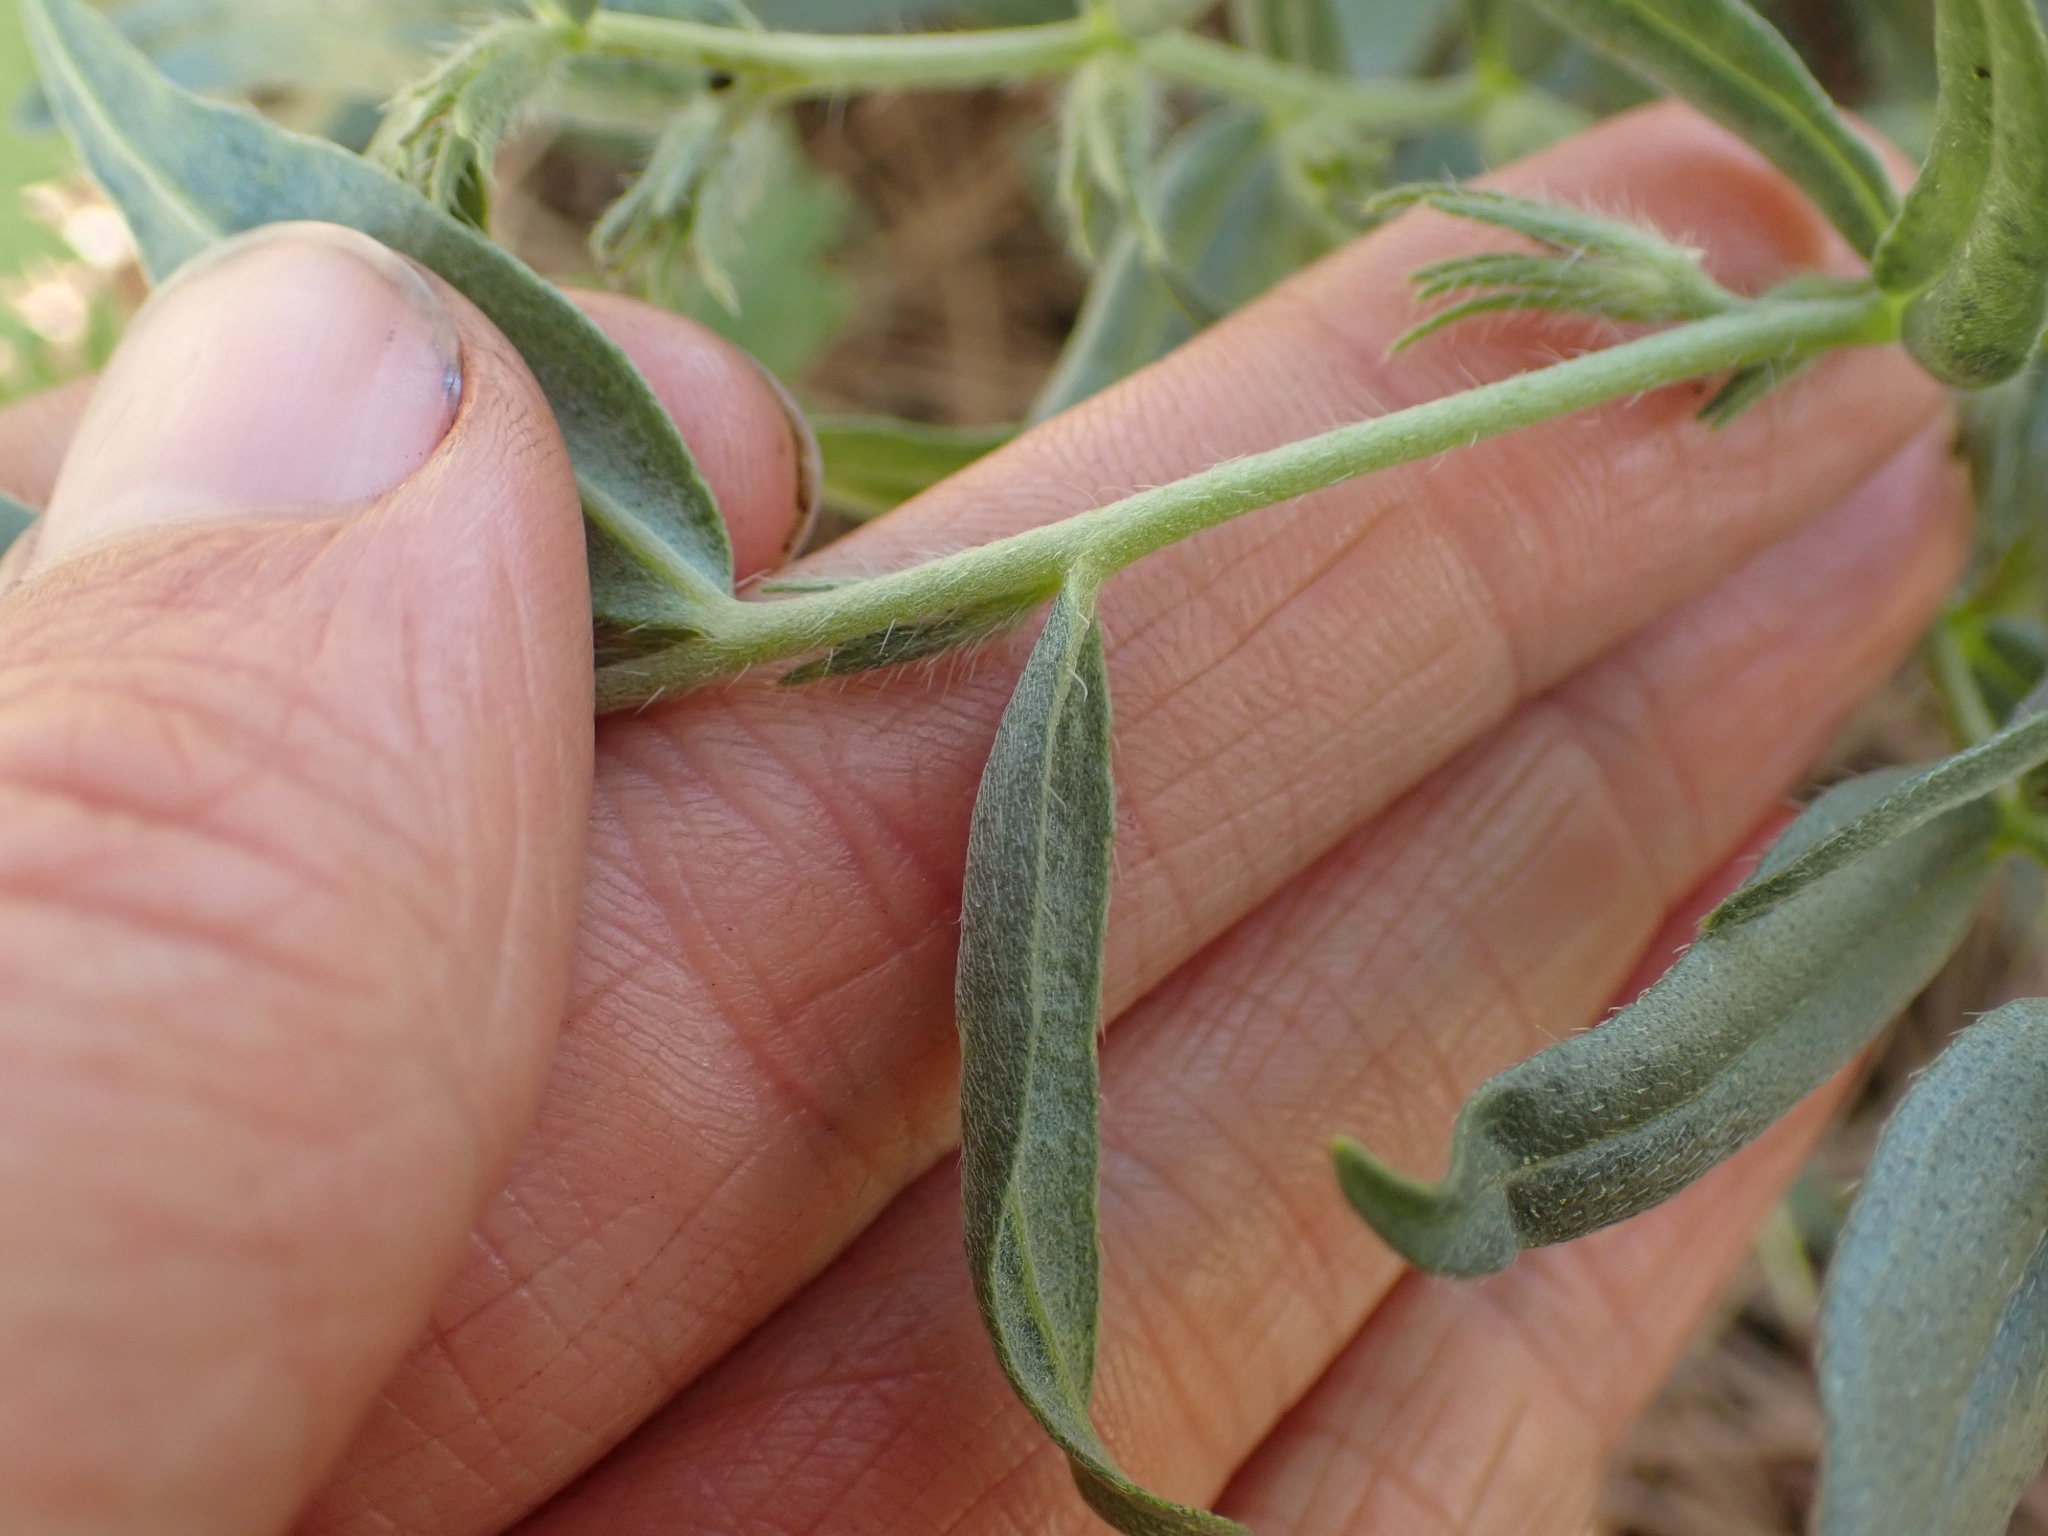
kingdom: Plantae
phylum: Tracheophyta
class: Magnoliopsida
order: Boraginales
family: Boraginaceae
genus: Lithospermum
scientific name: Lithospermum ruderale
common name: Western gromwell
